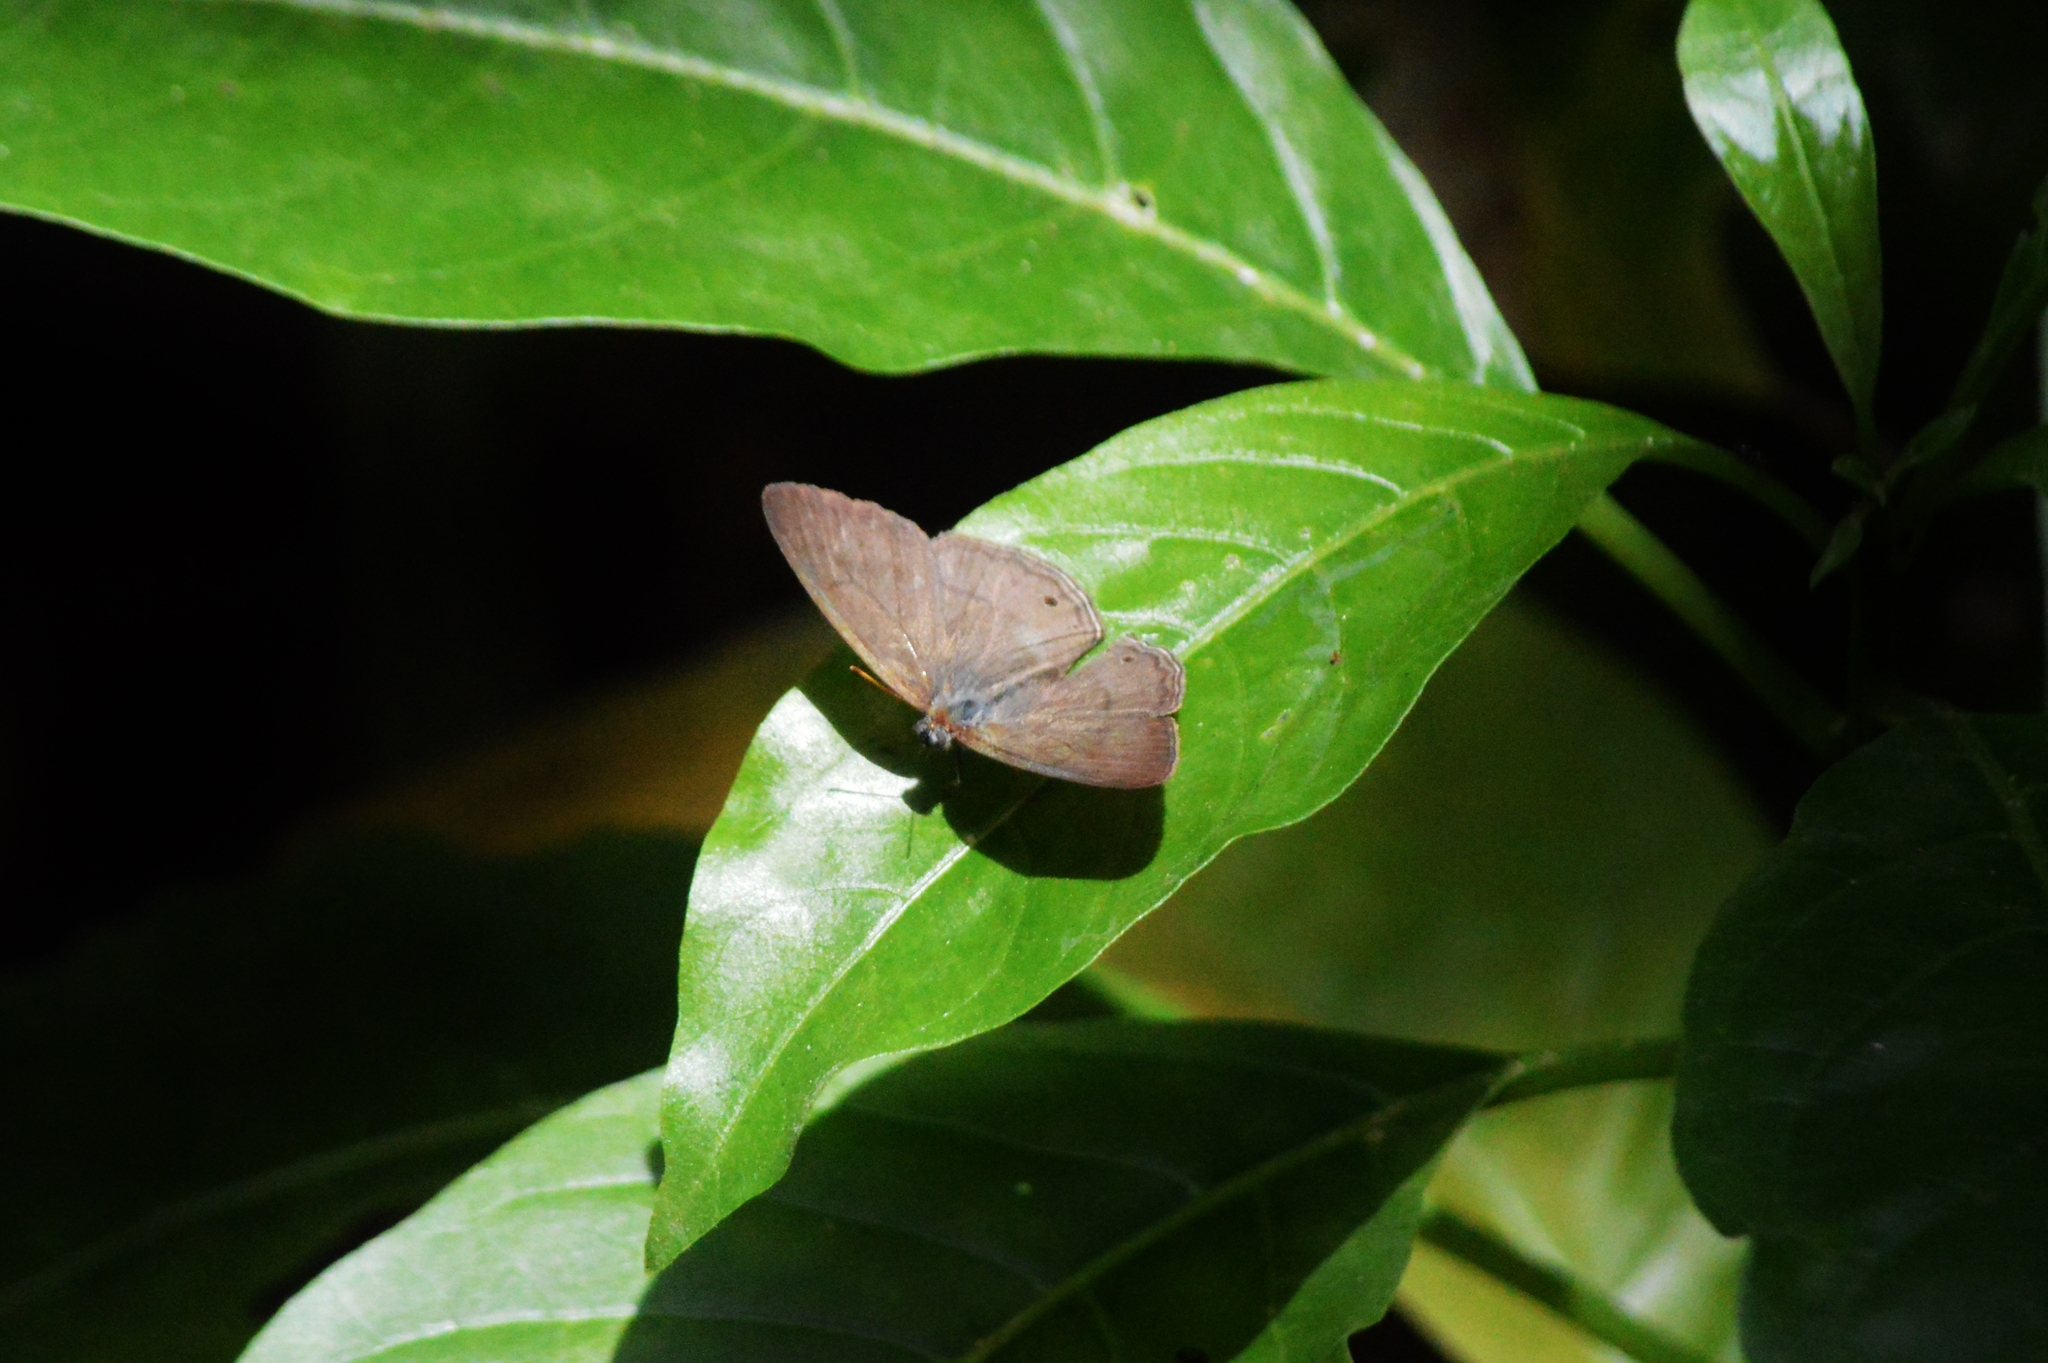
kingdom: Animalia
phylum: Arthropoda
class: Insecta
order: Lepidoptera
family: Nymphalidae
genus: Paryphthimoides
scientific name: Paryphthimoides poltys
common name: Poltys satyr
